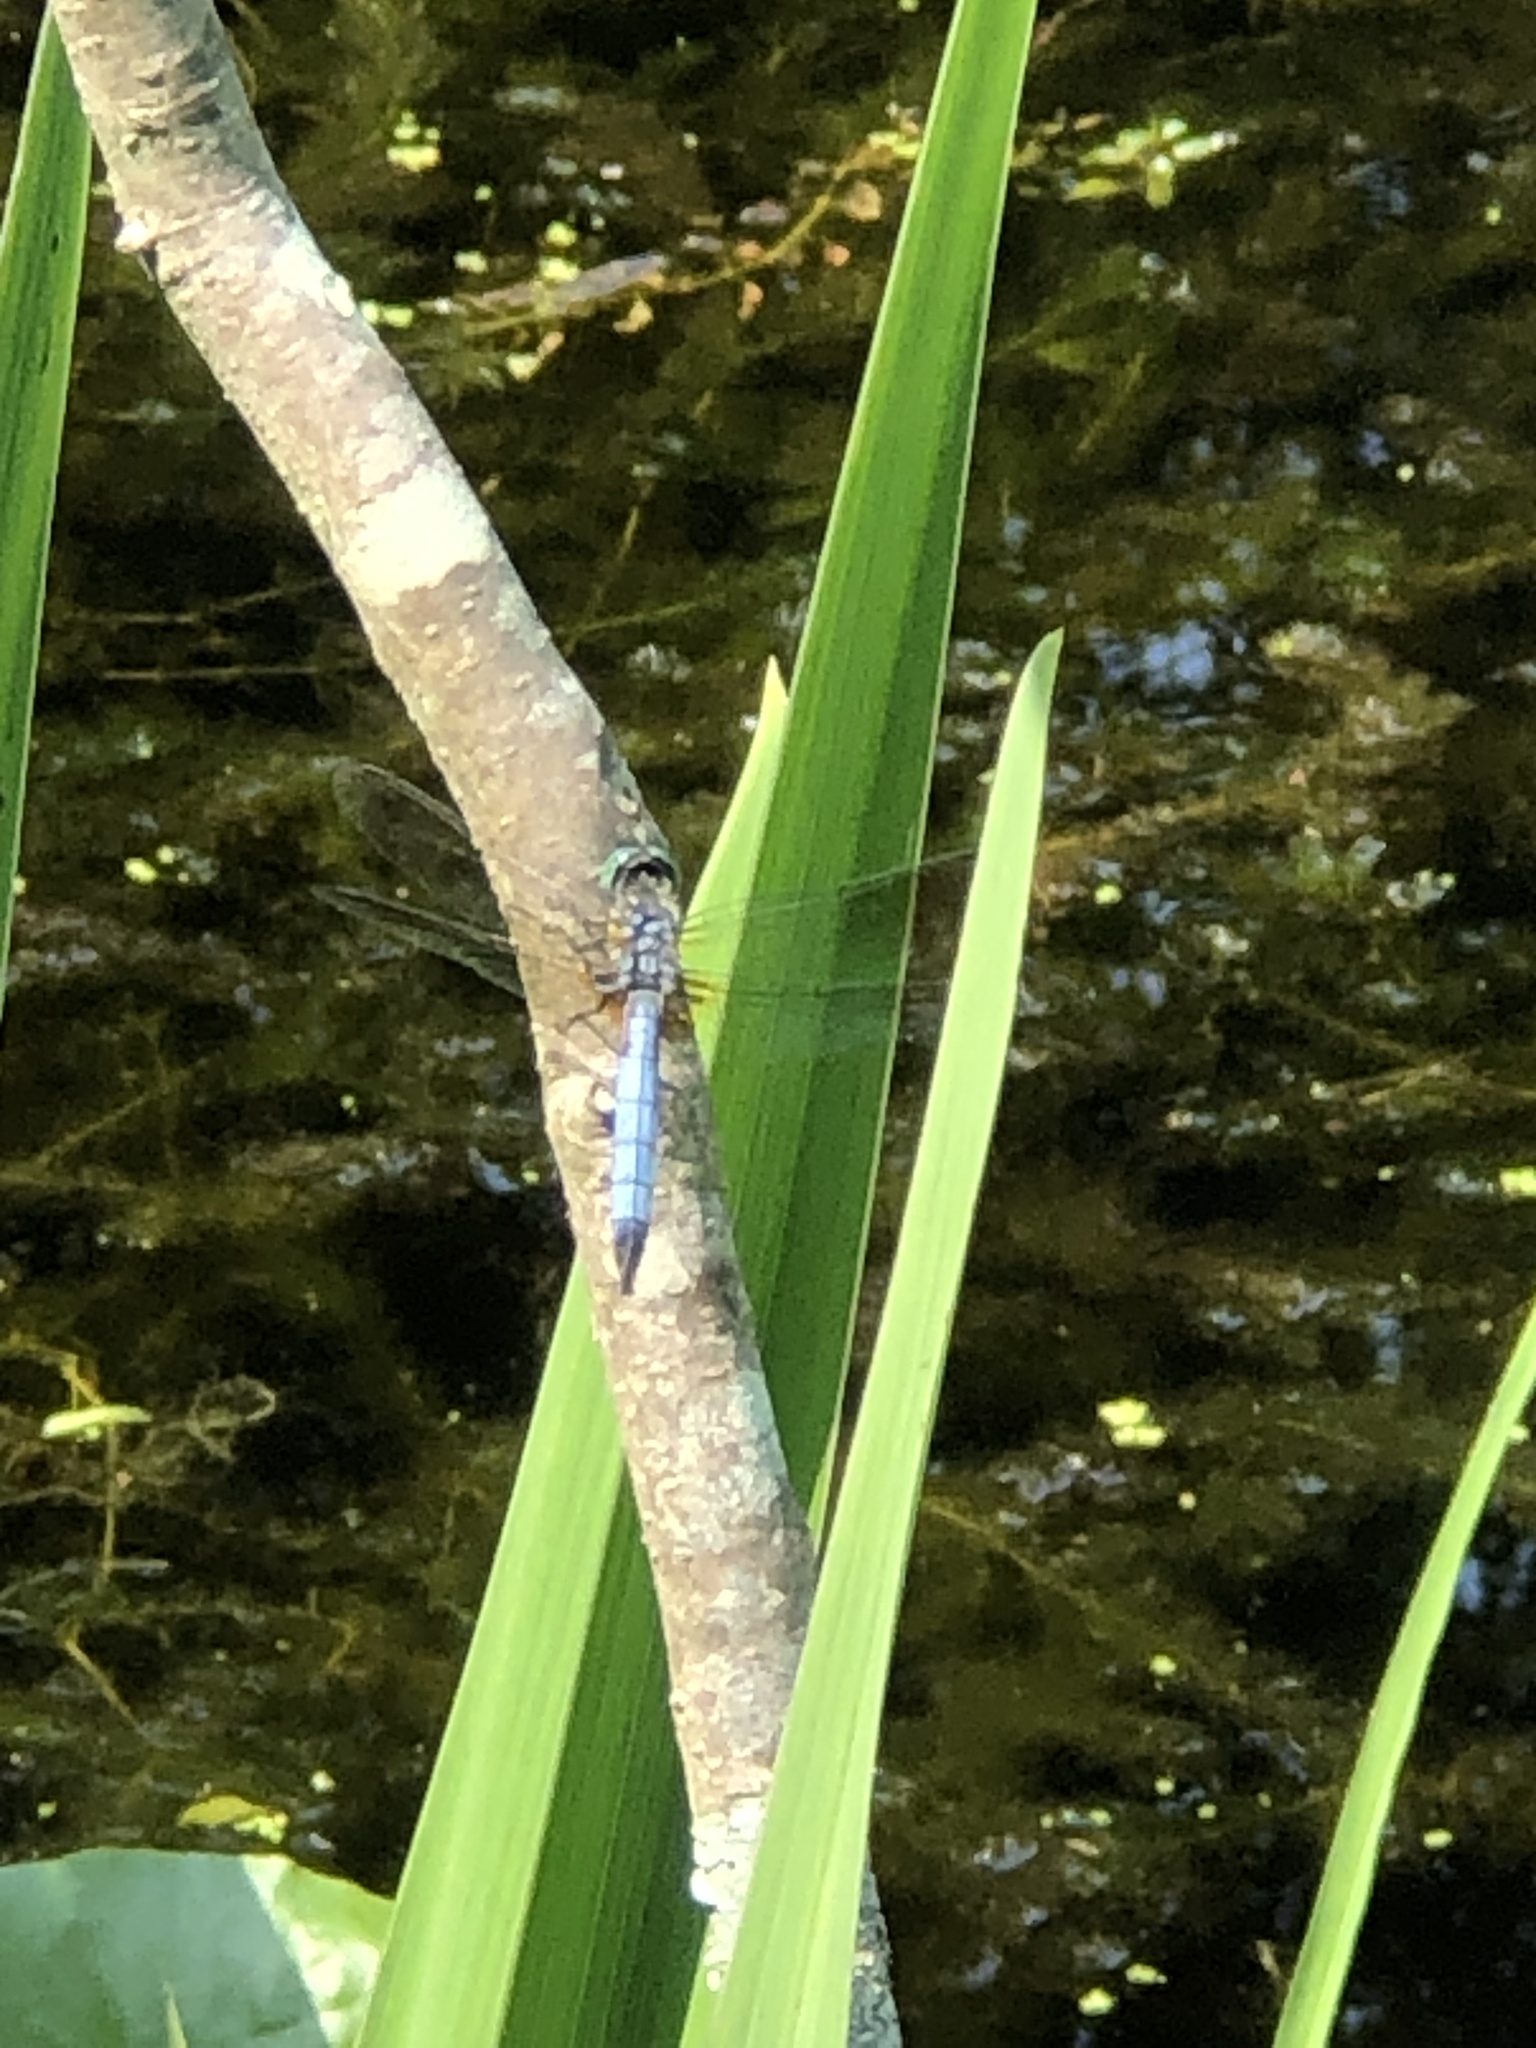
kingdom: Animalia
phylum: Arthropoda
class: Insecta
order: Odonata
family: Libellulidae
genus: Pachydiplax
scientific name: Pachydiplax longipennis
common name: Blue dasher
